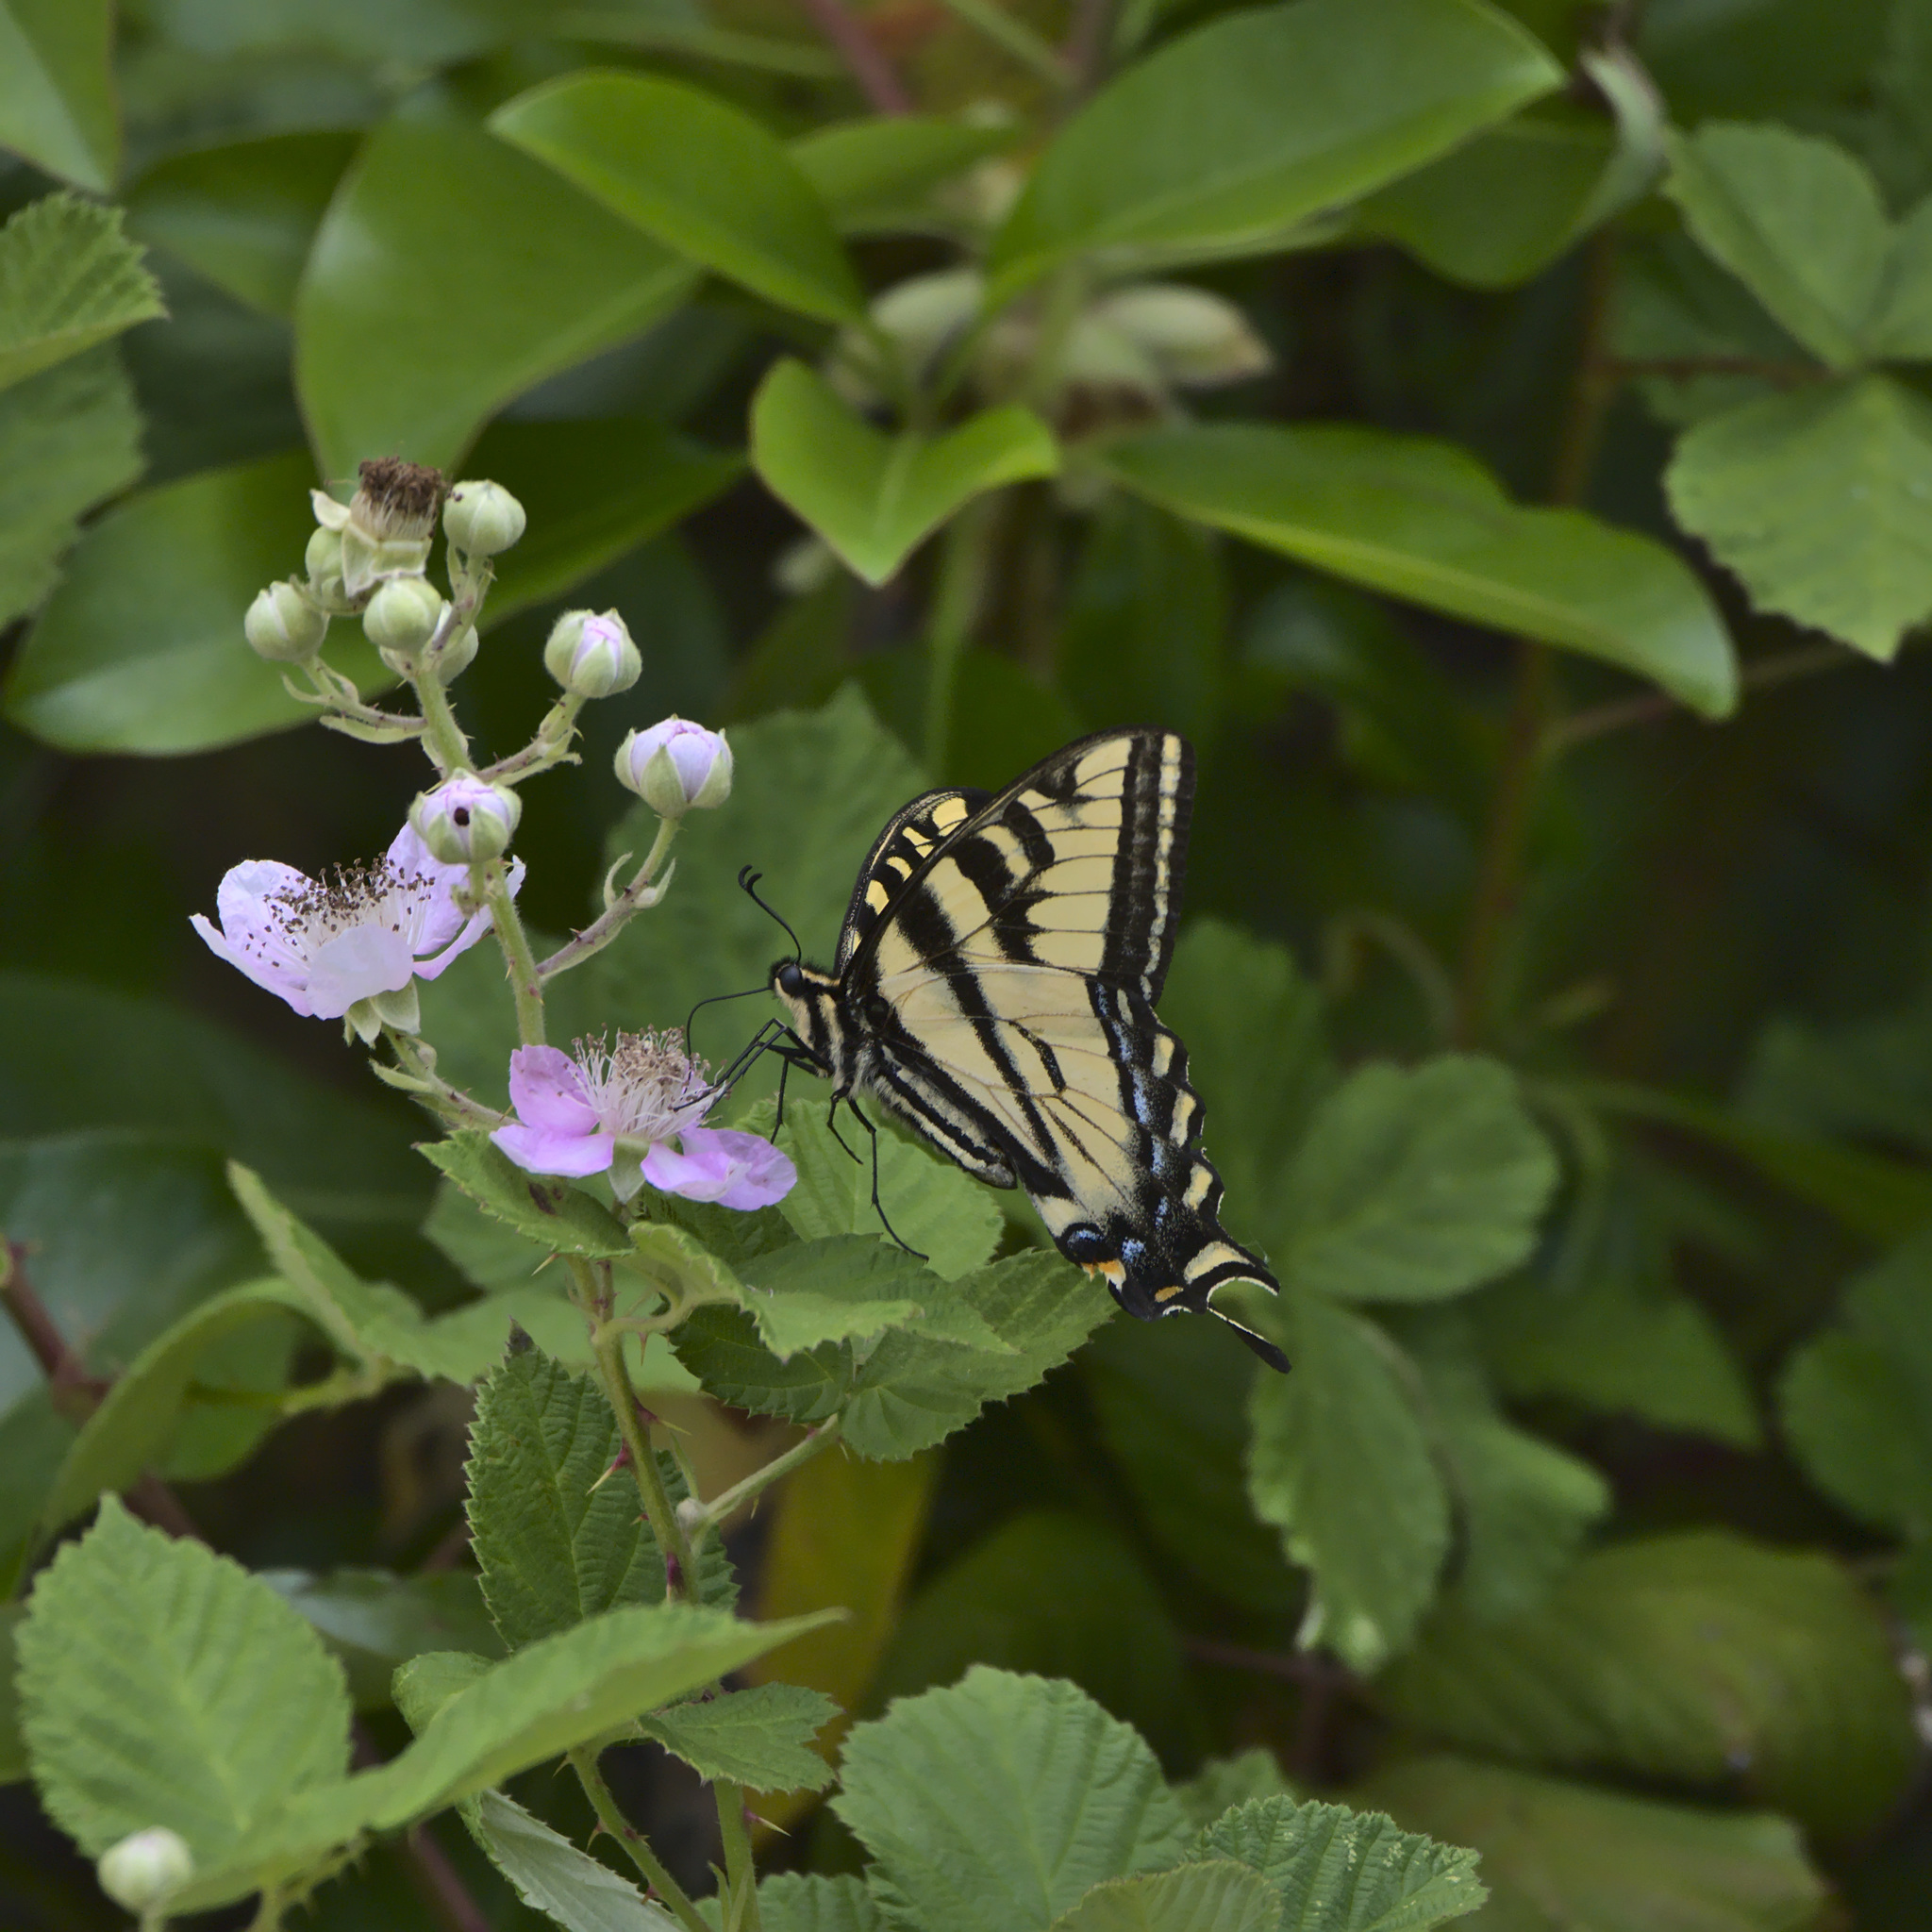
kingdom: Animalia
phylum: Arthropoda
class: Insecta
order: Lepidoptera
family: Papilionidae
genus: Papilio
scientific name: Papilio rutulus
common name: Western tiger swallowtail
